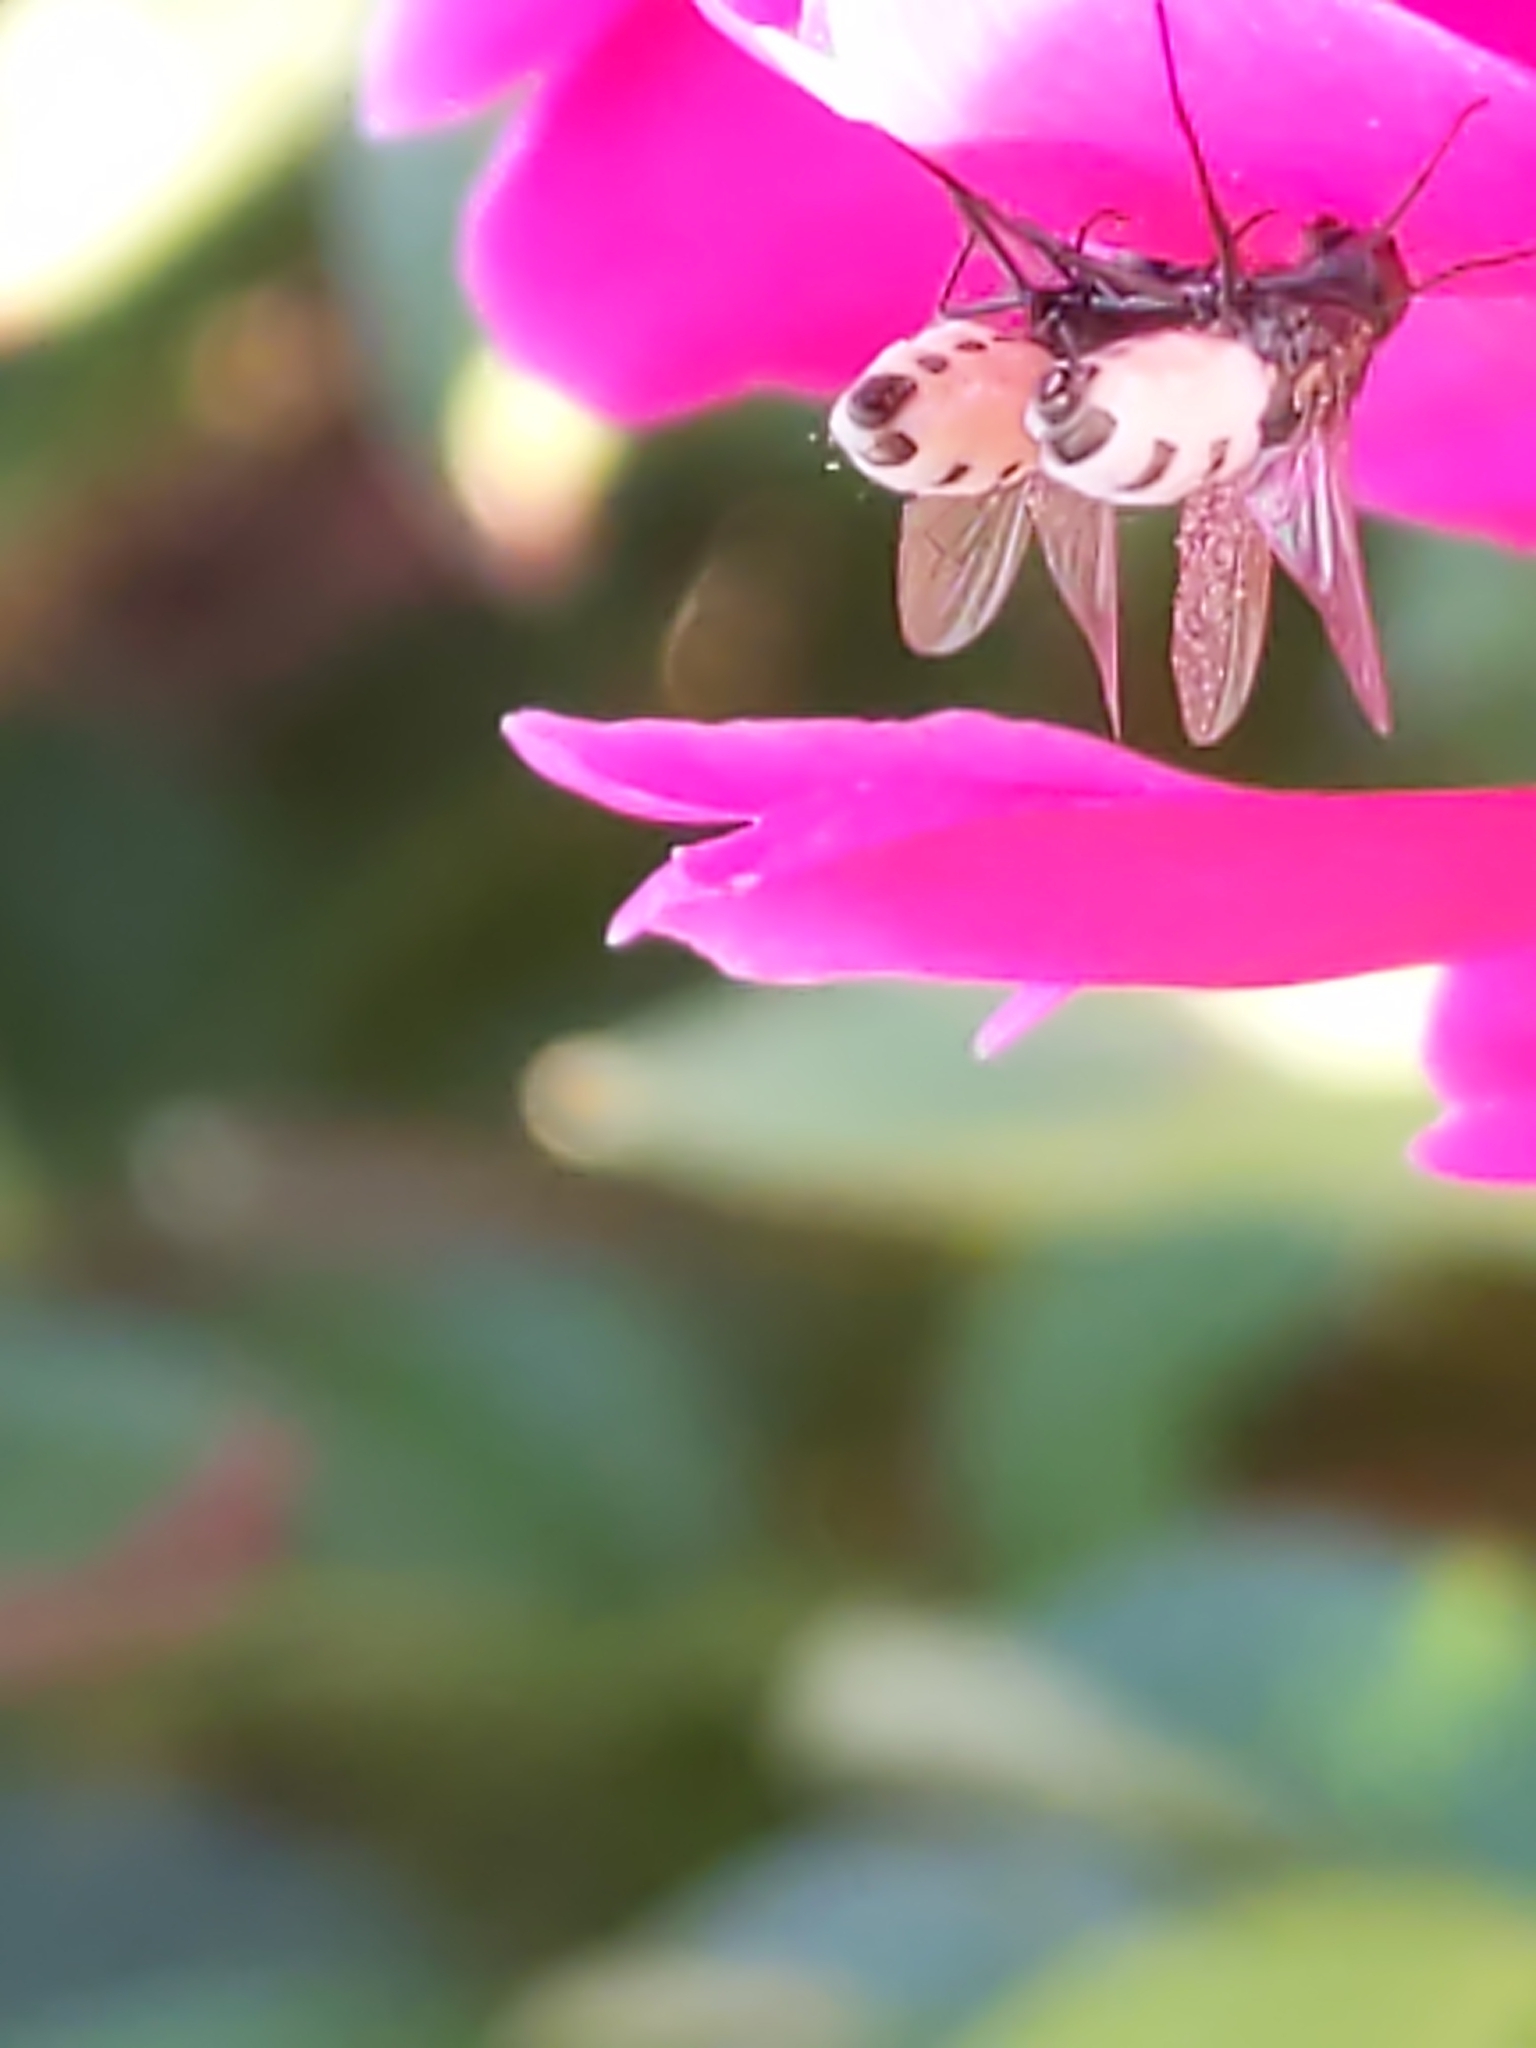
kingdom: Fungi
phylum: Entomophthoromycota
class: Entomophthoromycetes
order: Entomophthorales
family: Entomophthoraceae
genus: Entomophthora
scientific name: Entomophthora
